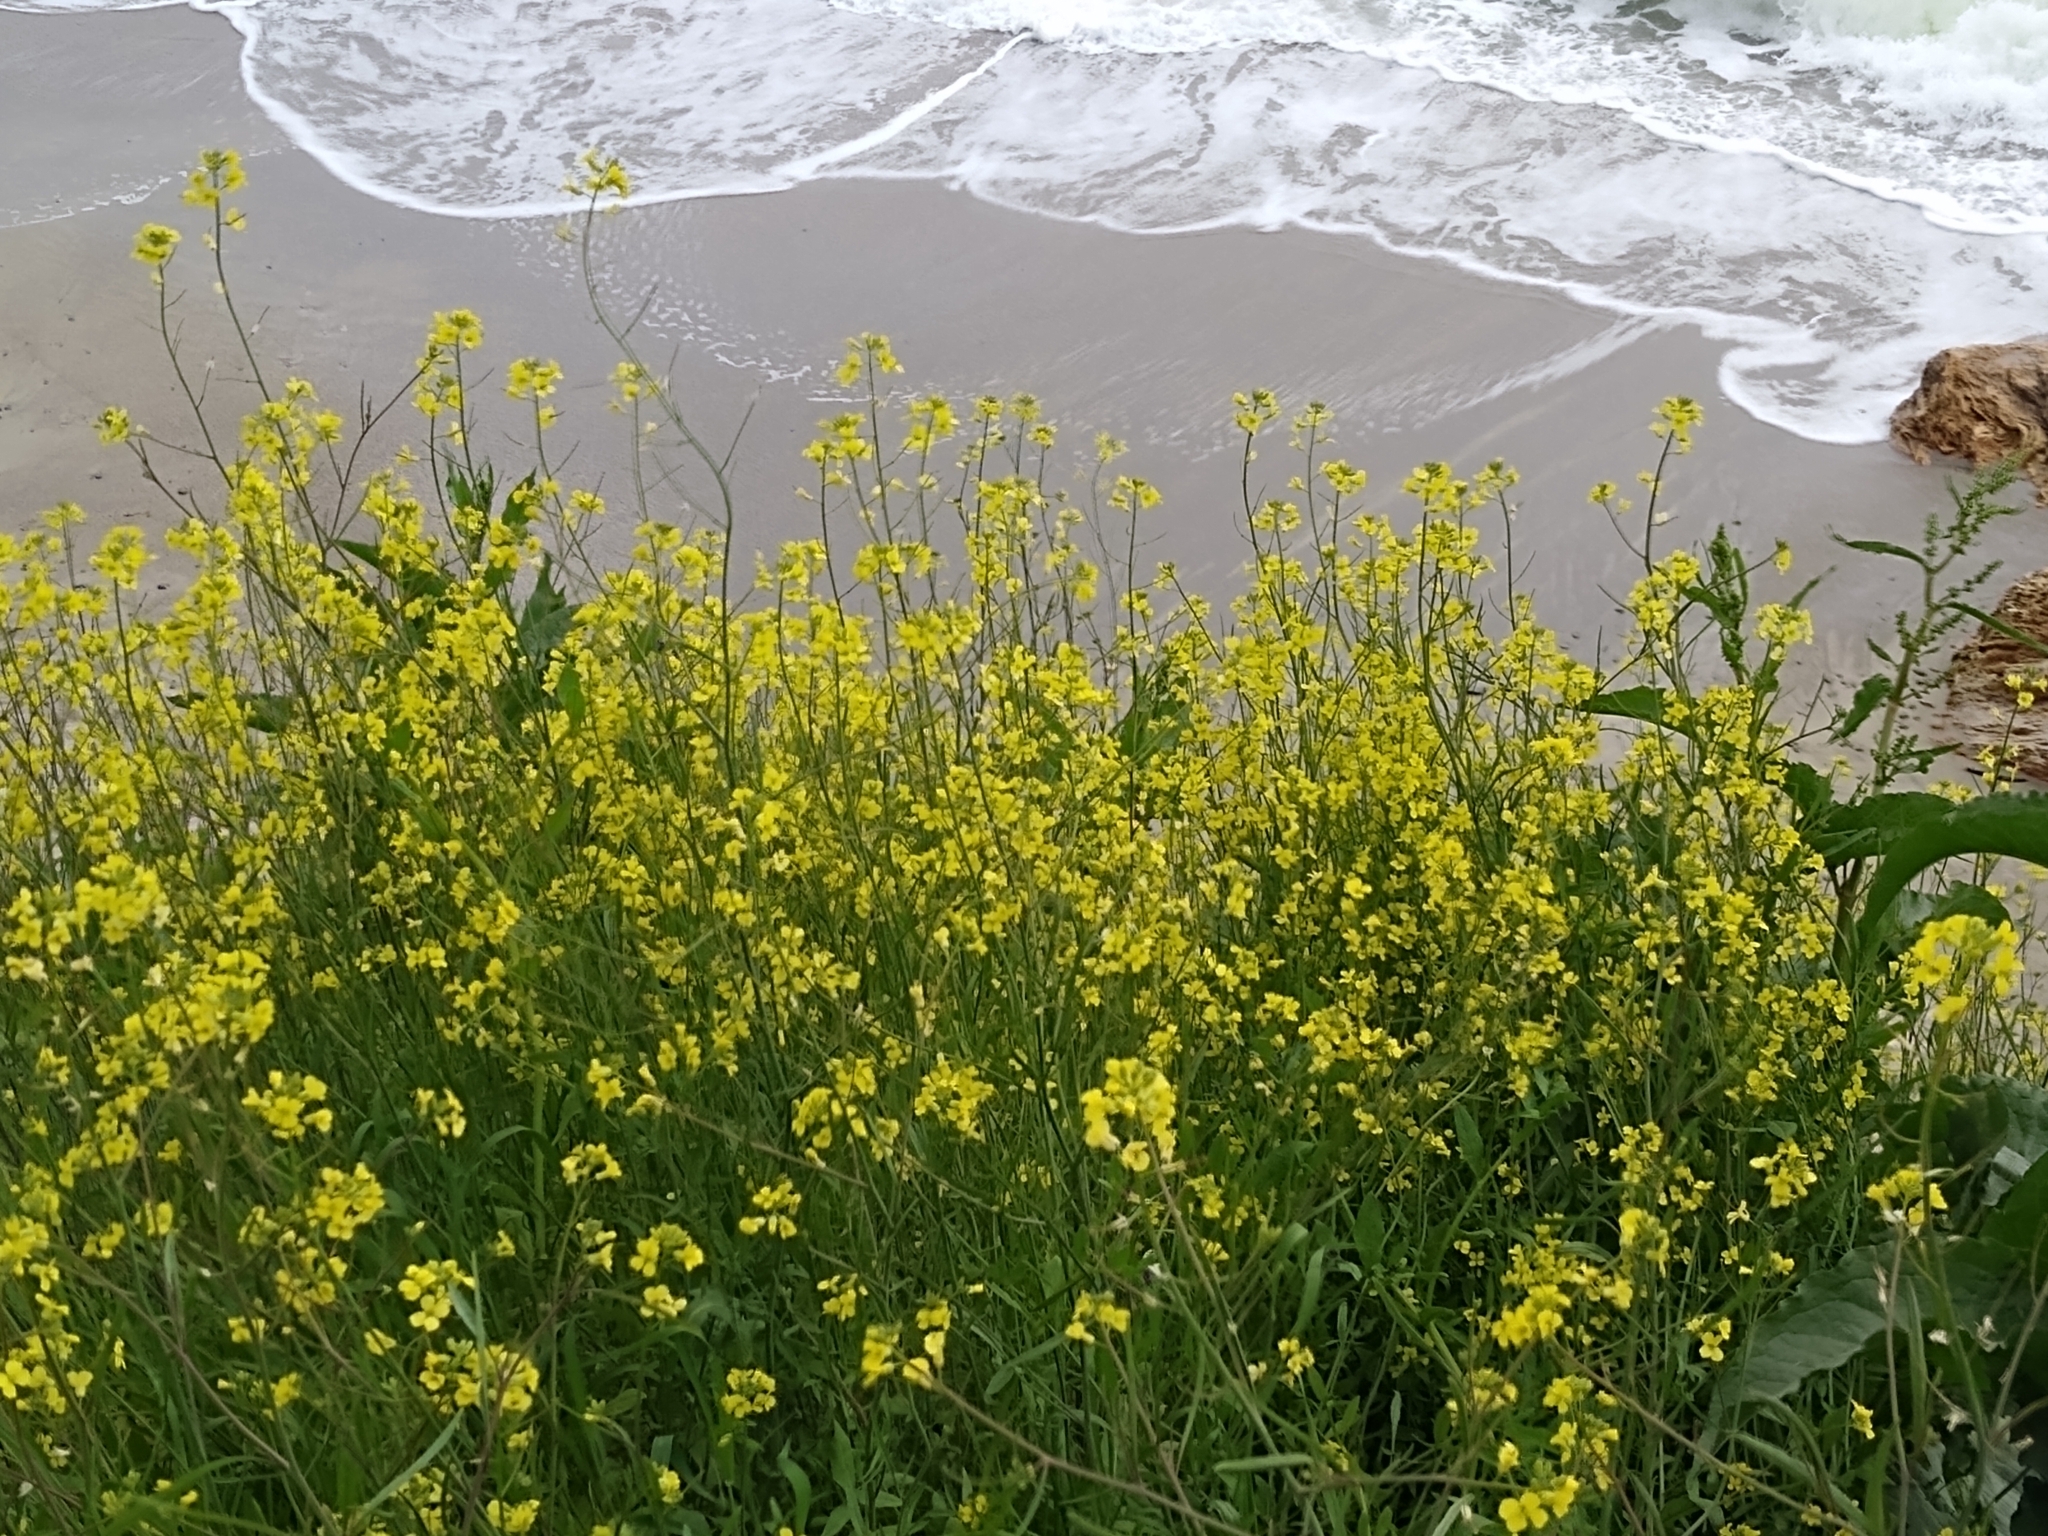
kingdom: Plantae
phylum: Tracheophyta
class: Magnoliopsida
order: Brassicales
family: Brassicaceae
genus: Sisymbrium
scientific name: Sisymbrium orientale
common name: Eastern rocket
